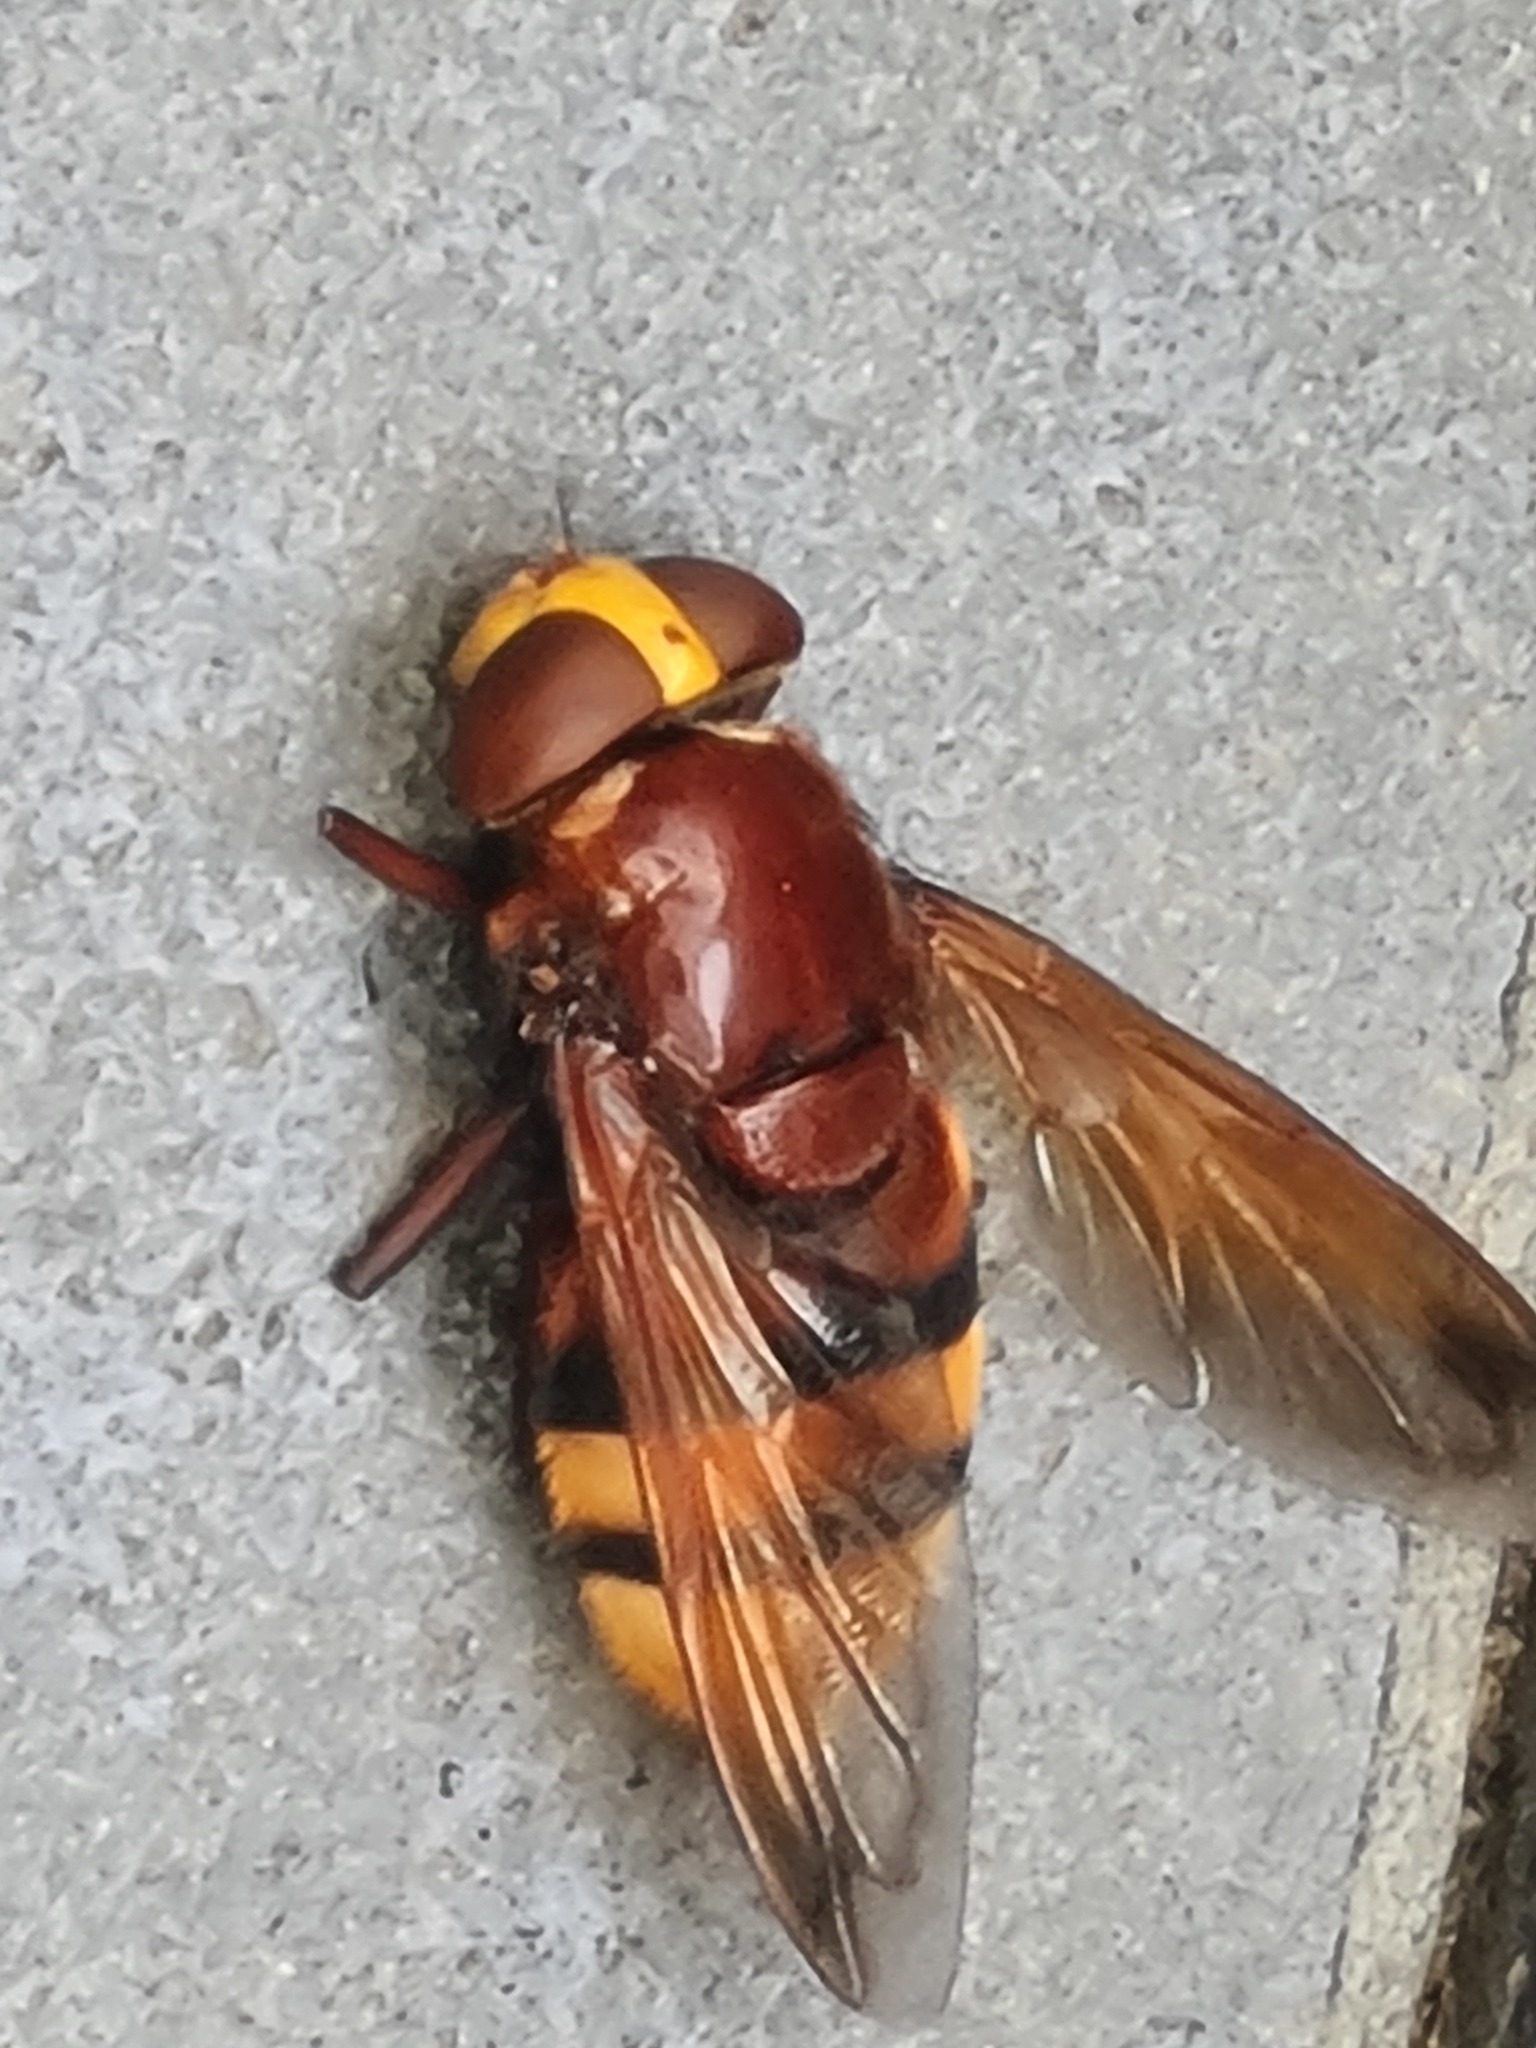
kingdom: Animalia
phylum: Arthropoda
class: Insecta
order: Diptera
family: Syrphidae
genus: Volucella
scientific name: Volucella zonaria
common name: Hornet hoverfly
